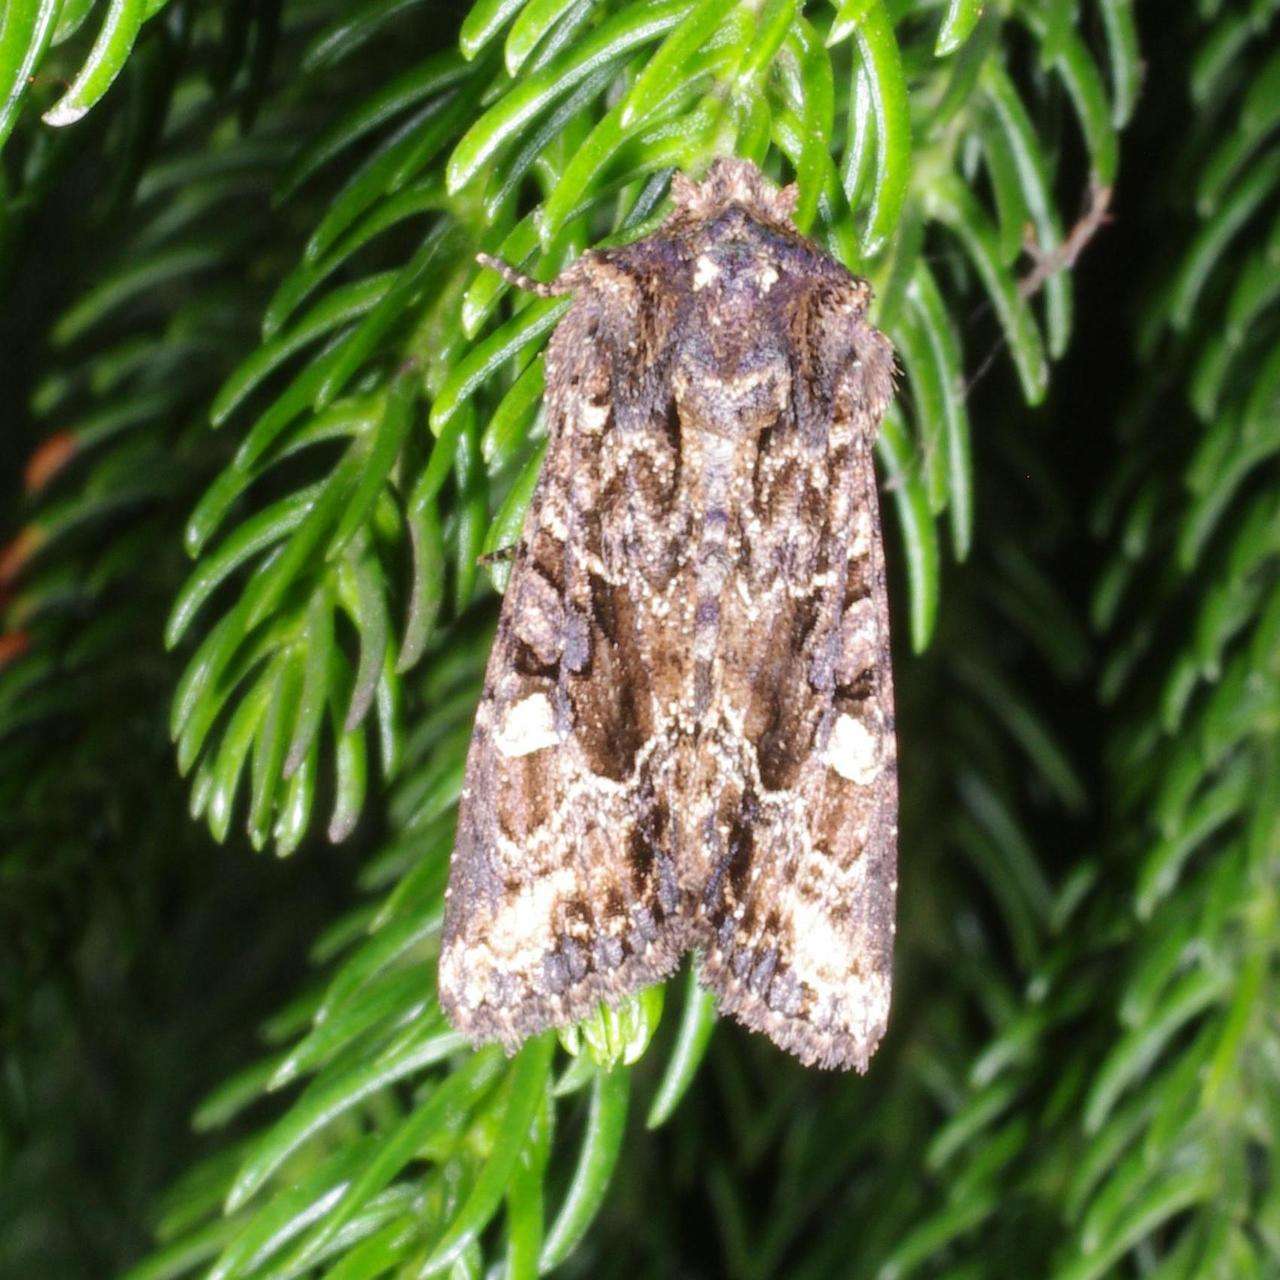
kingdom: Animalia
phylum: Arthropoda
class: Insecta
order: Lepidoptera
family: Noctuidae
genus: Neumichtis
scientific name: Neumichtis saliaris
